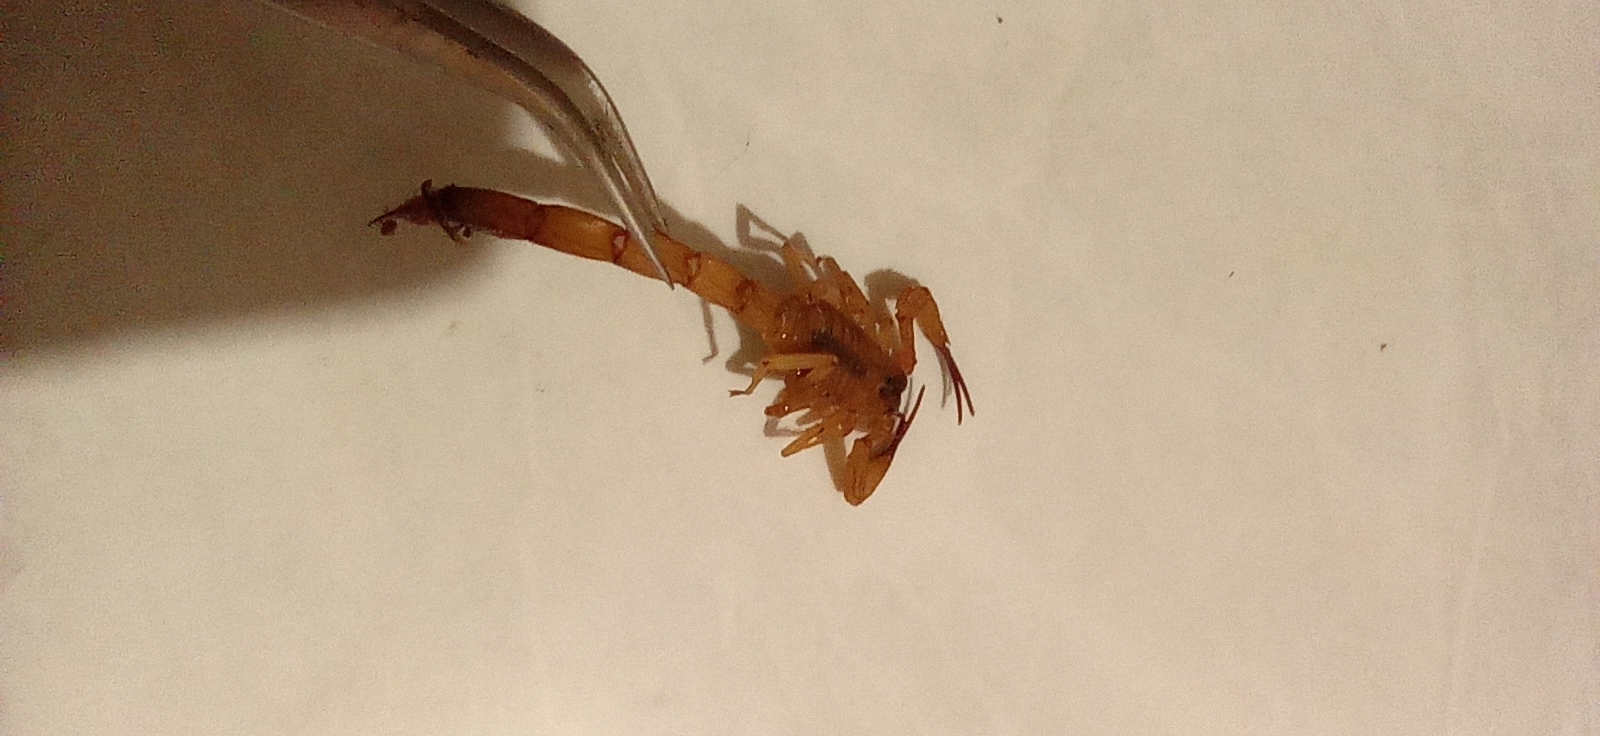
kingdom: Animalia
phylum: Arthropoda
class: Arachnida
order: Scorpiones
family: Buthidae
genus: Tityus
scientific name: Tityus stigmurus
